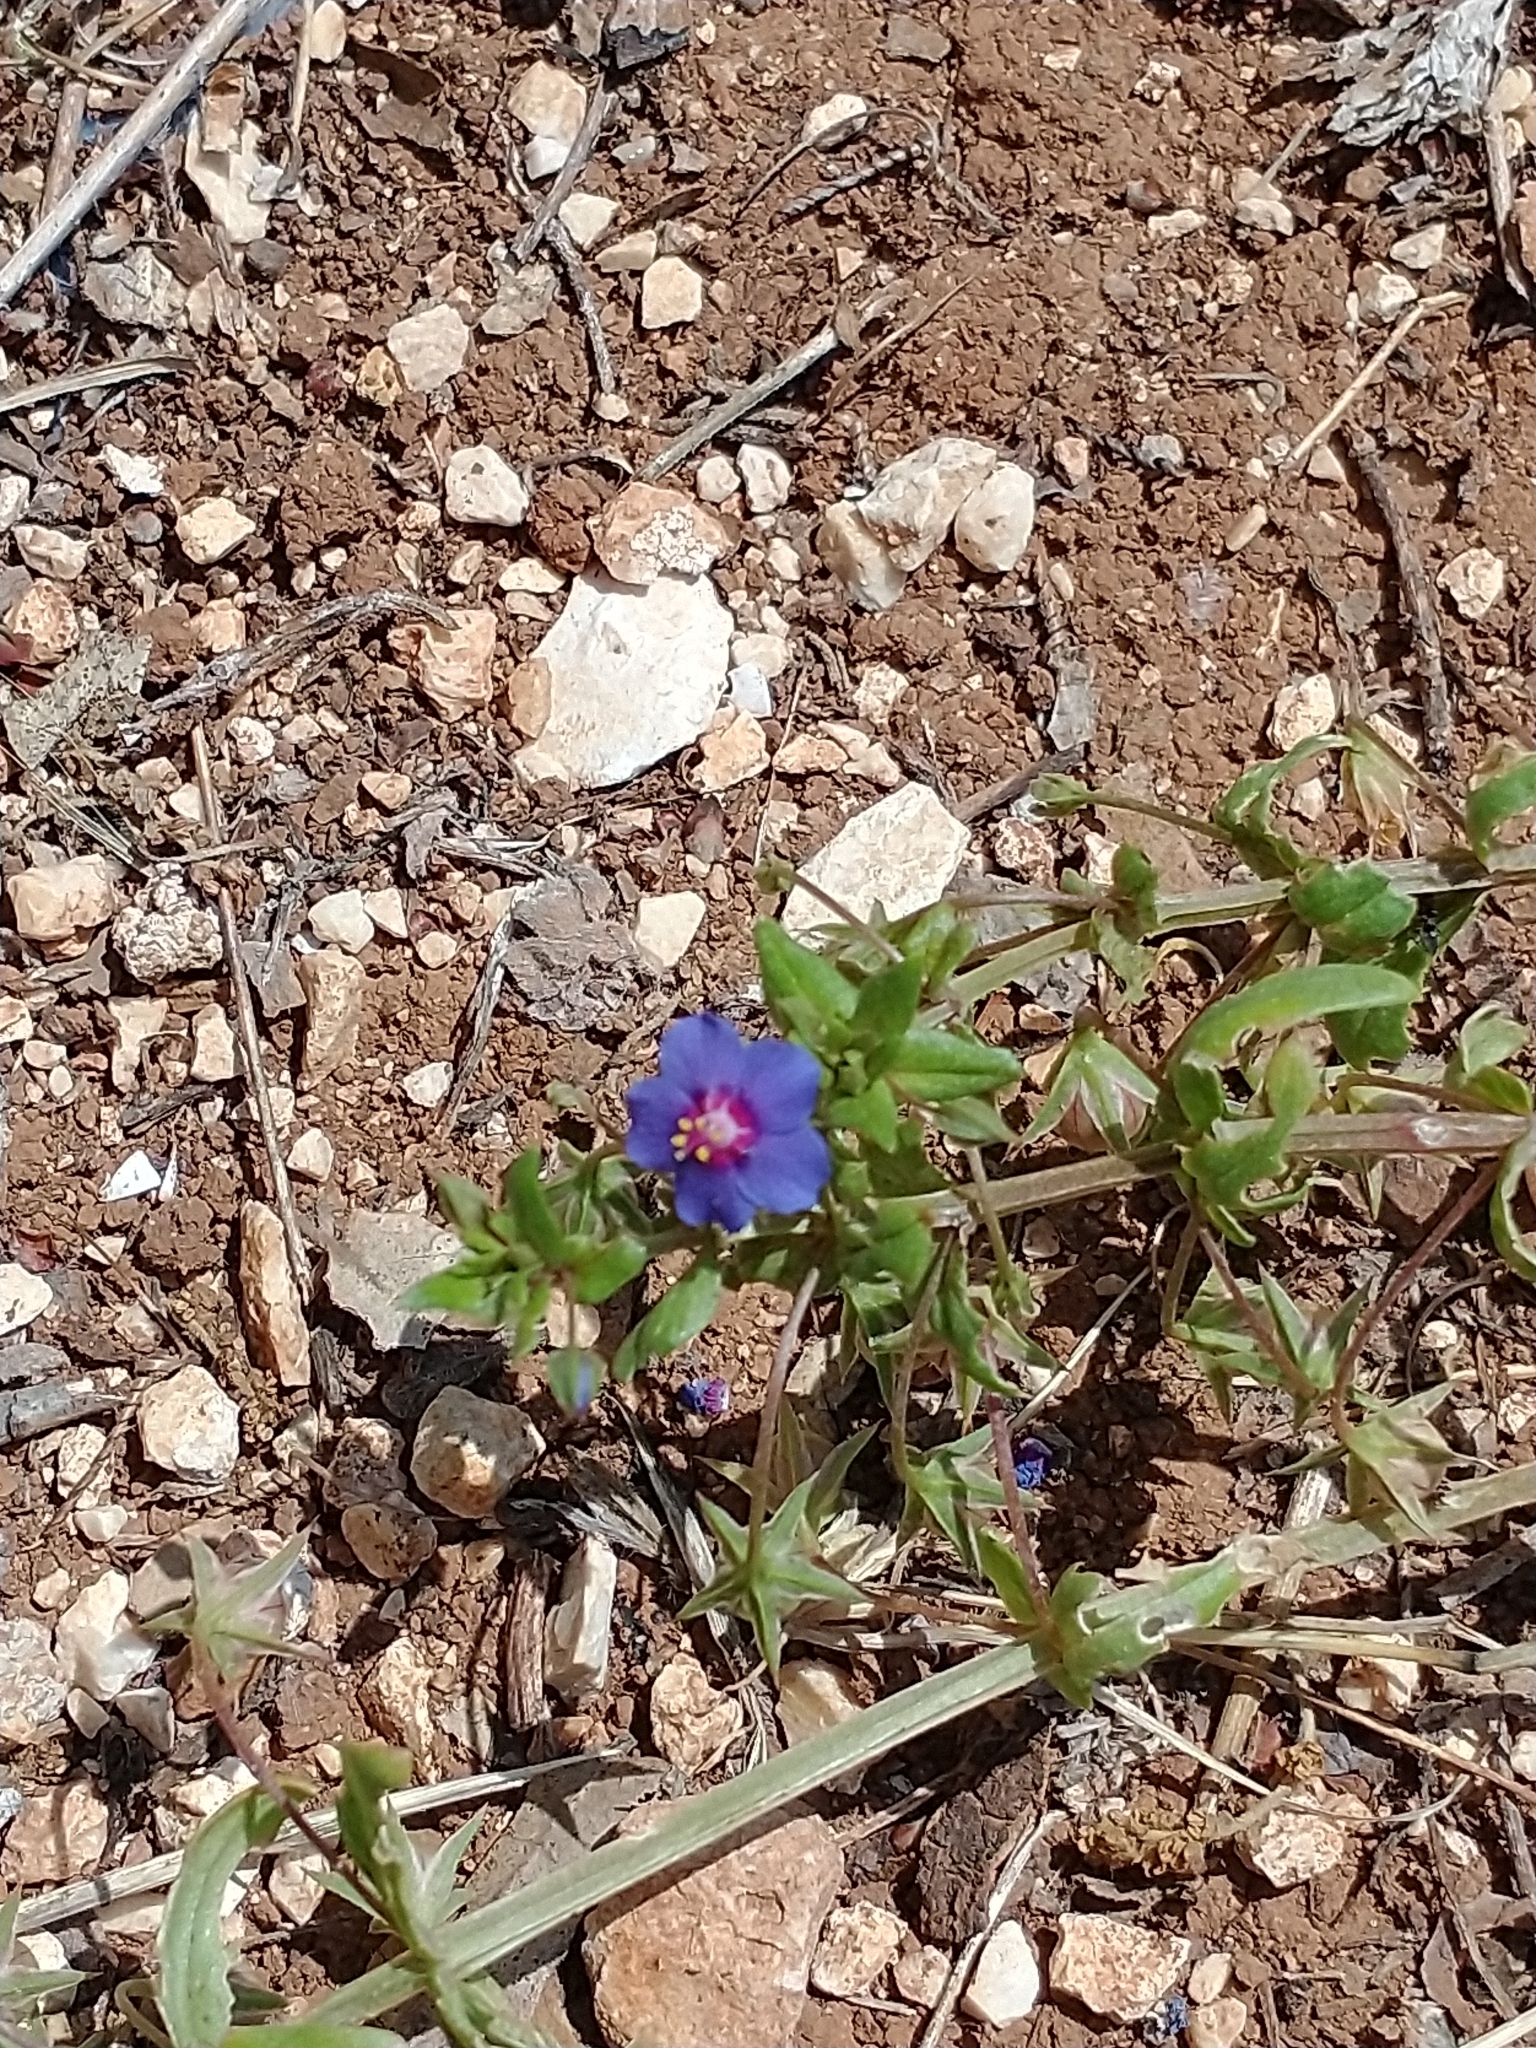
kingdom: Plantae
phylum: Tracheophyta
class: Magnoliopsida
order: Ericales
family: Primulaceae
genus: Lysimachia
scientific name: Lysimachia loeflingii
